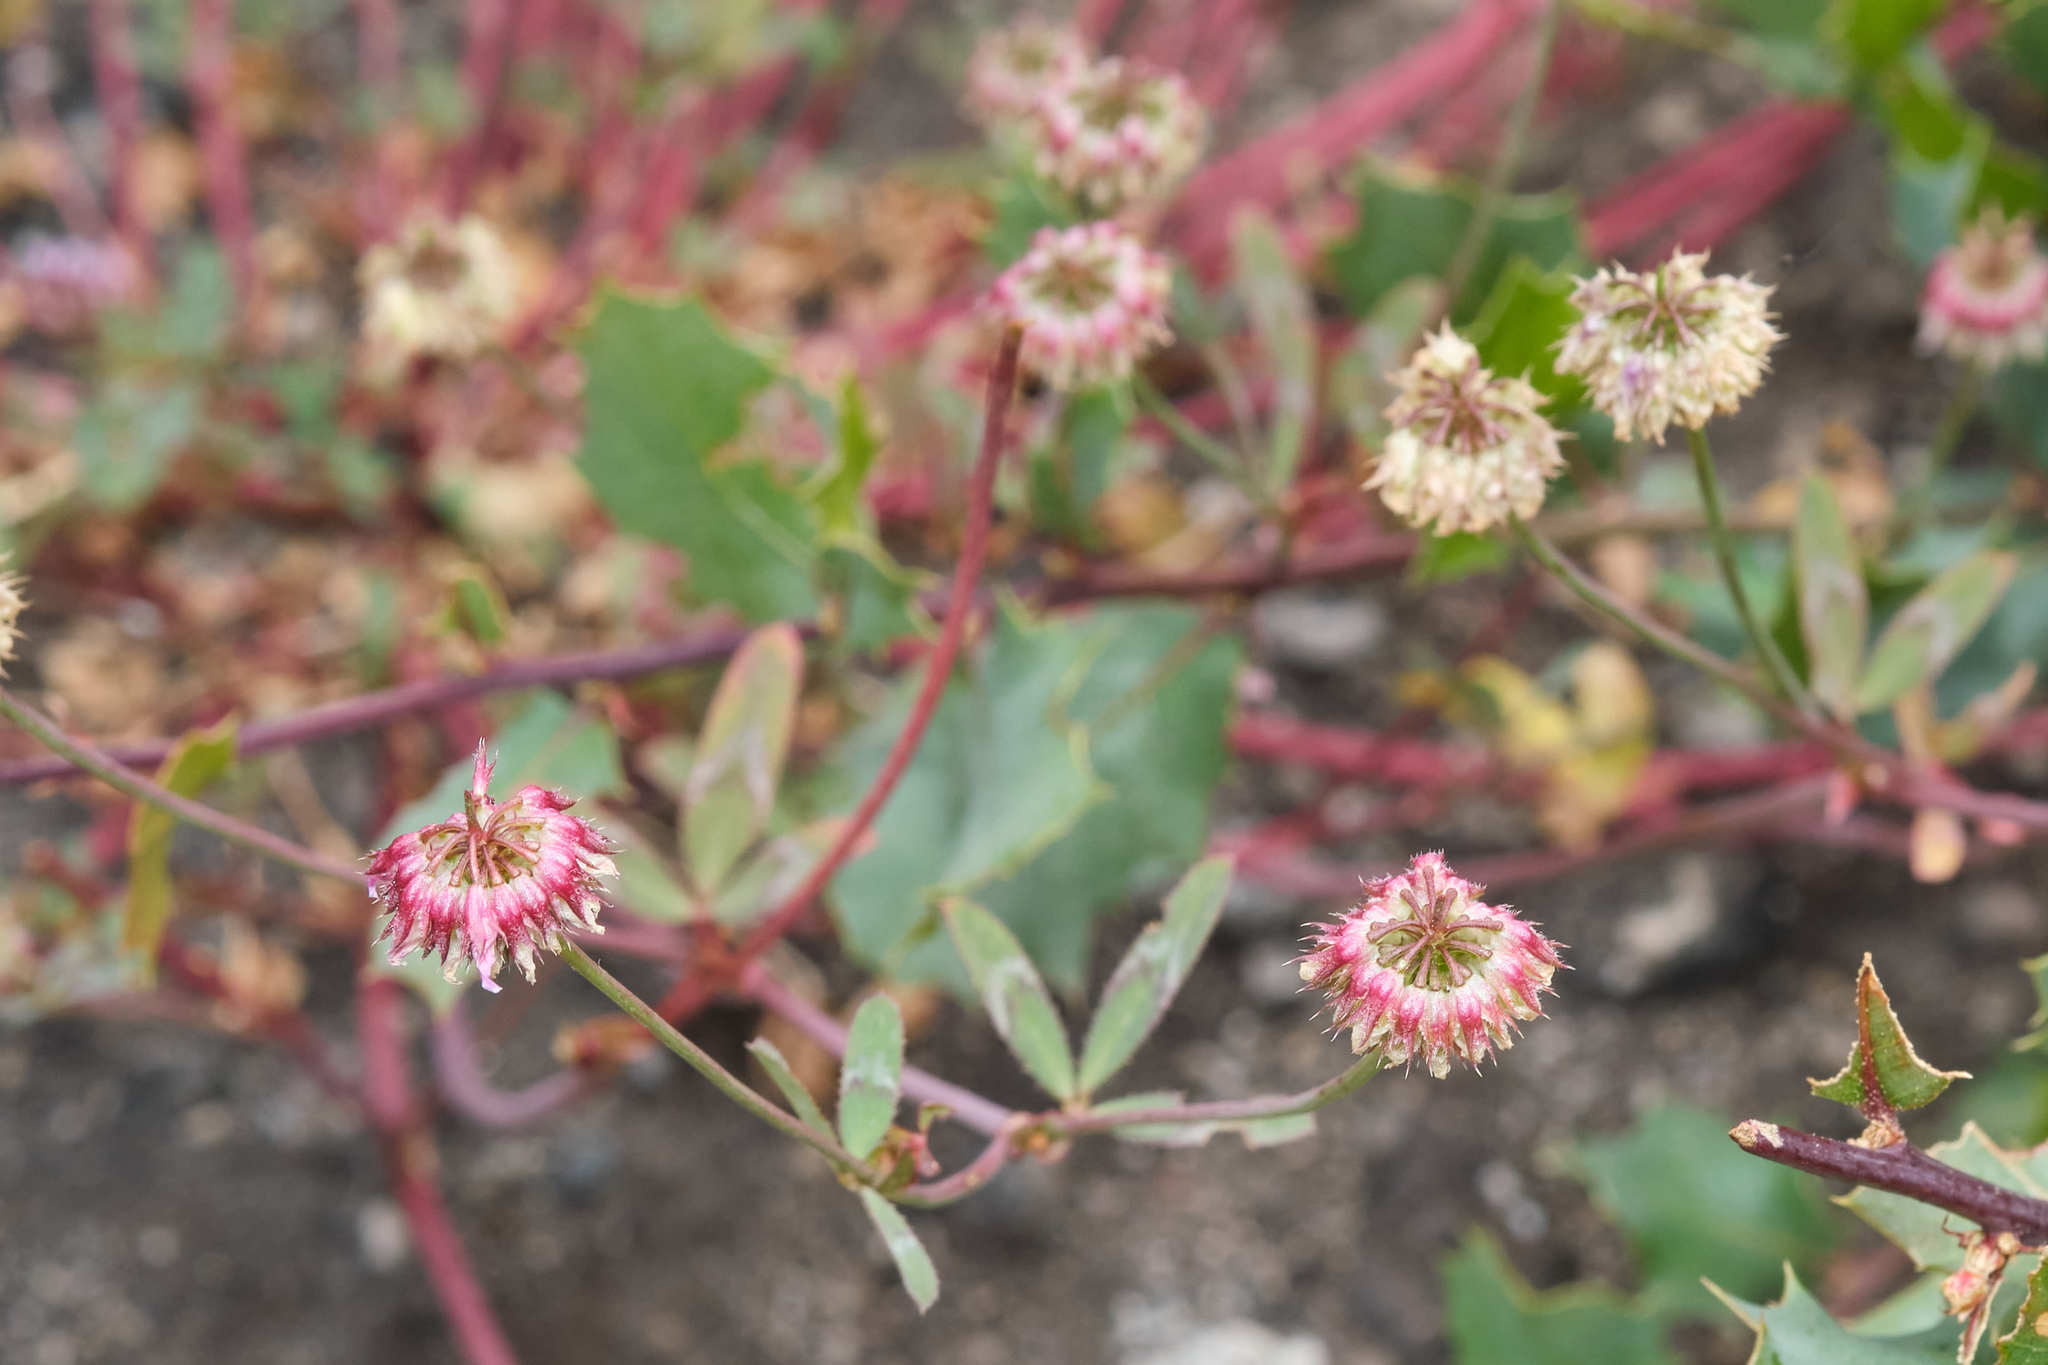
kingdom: Plantae
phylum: Tracheophyta
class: Magnoliopsida
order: Fabales
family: Fabaceae
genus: Trifolium
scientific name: Trifolium ciliolatum
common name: Foothill clover
